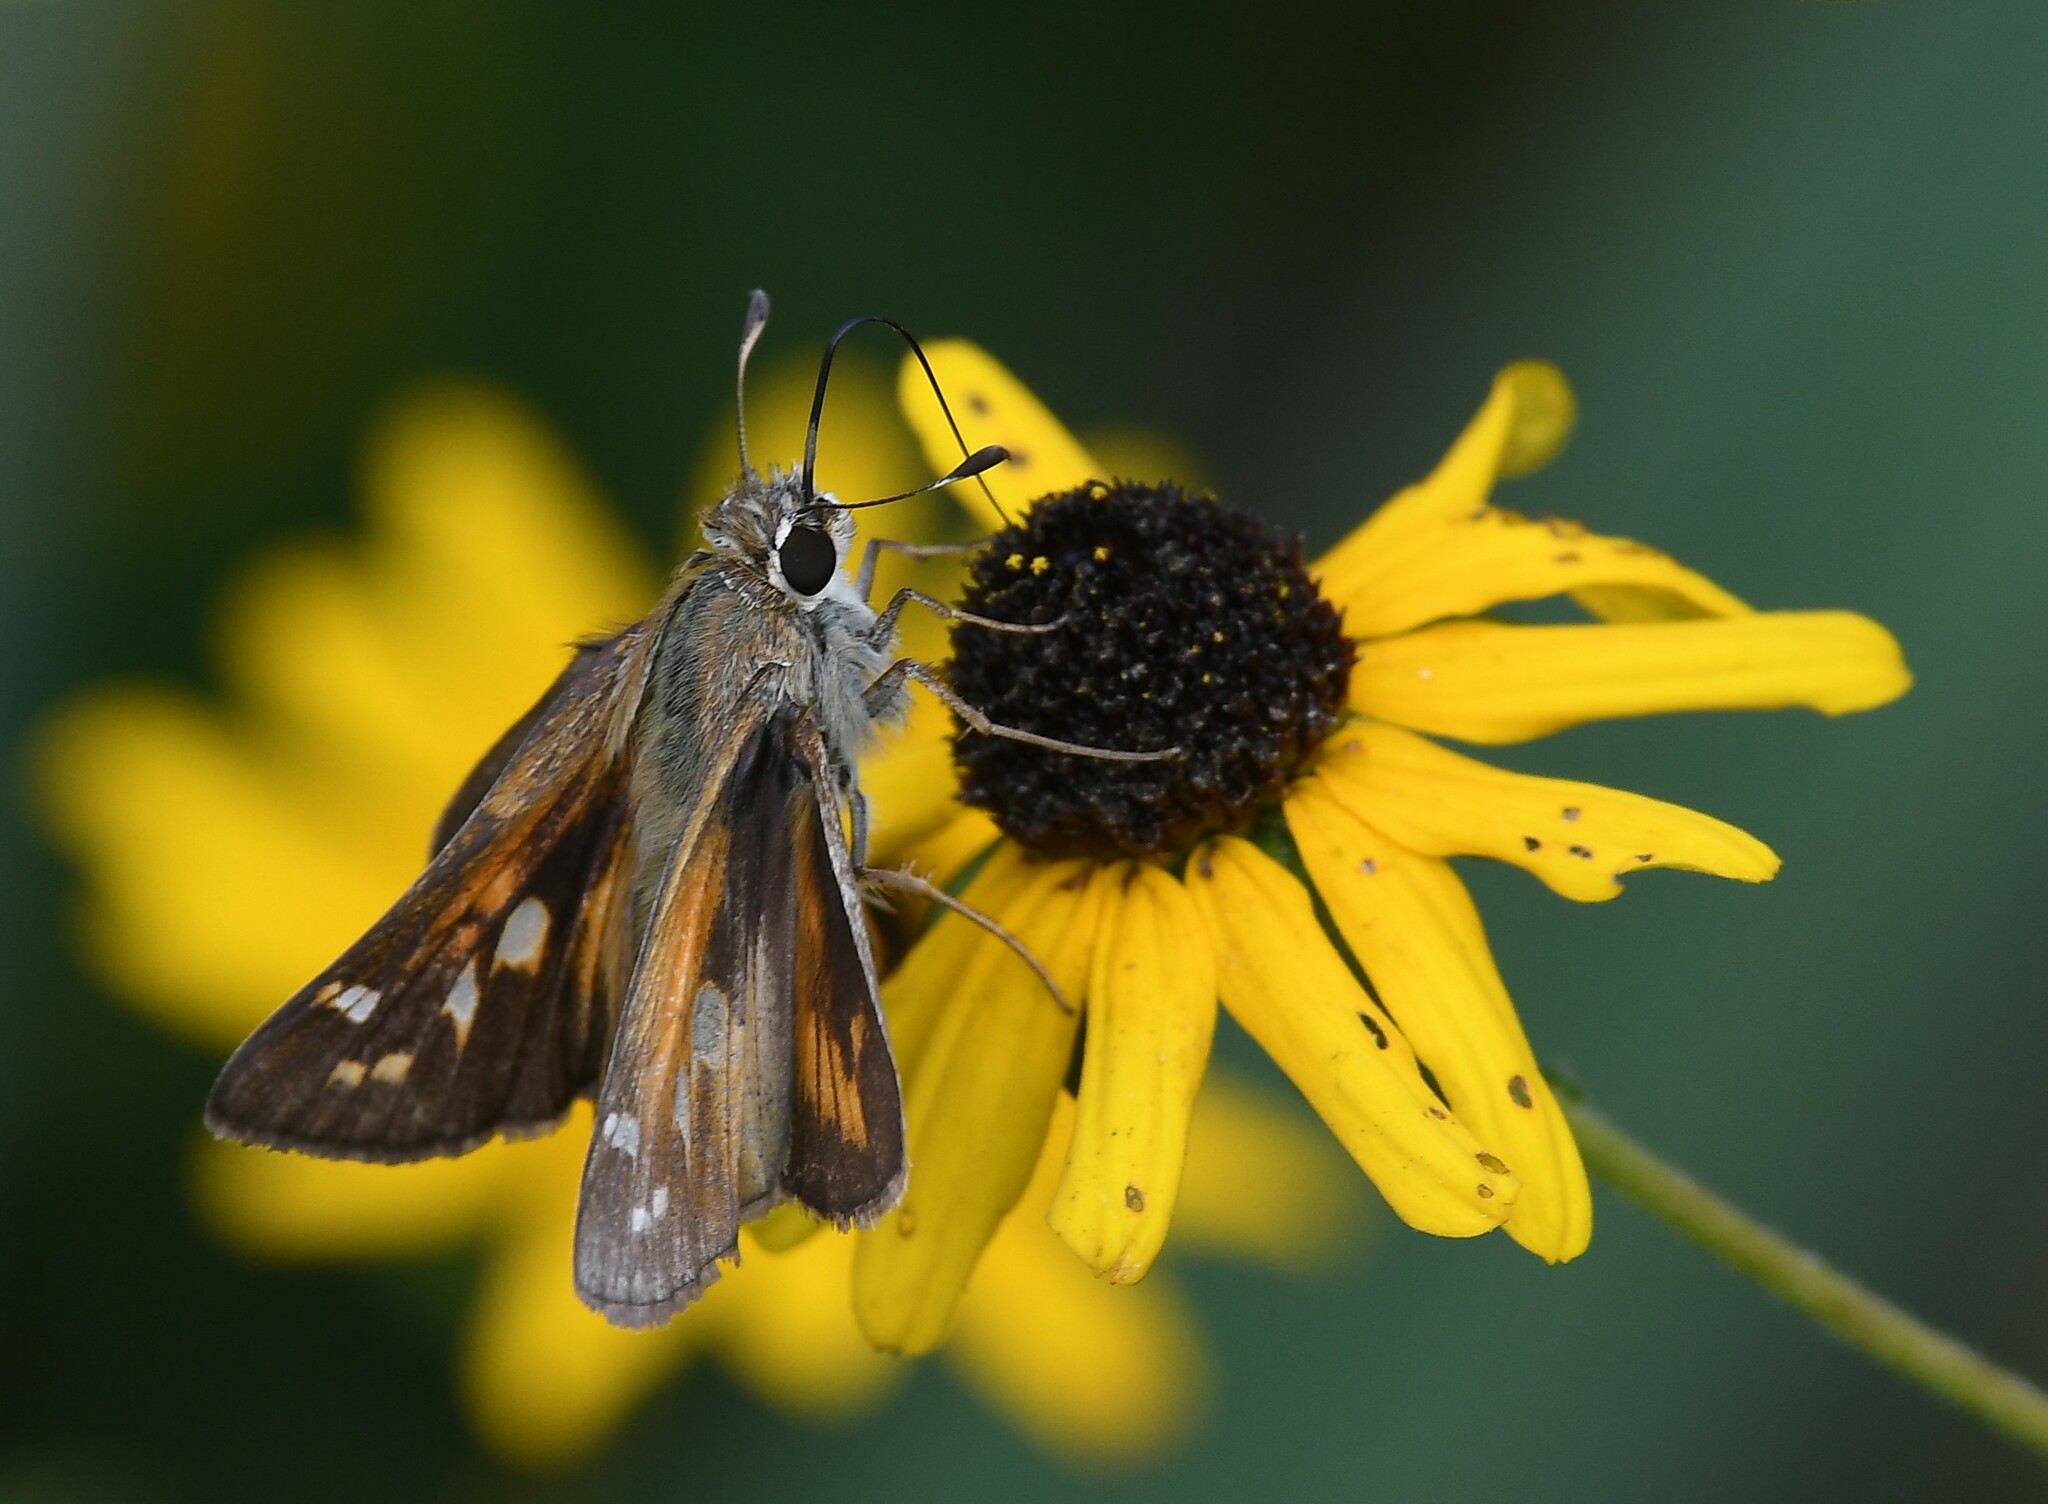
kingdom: Animalia
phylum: Arthropoda
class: Insecta
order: Lepidoptera
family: Hesperiidae
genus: Atalopedes
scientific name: Atalopedes
